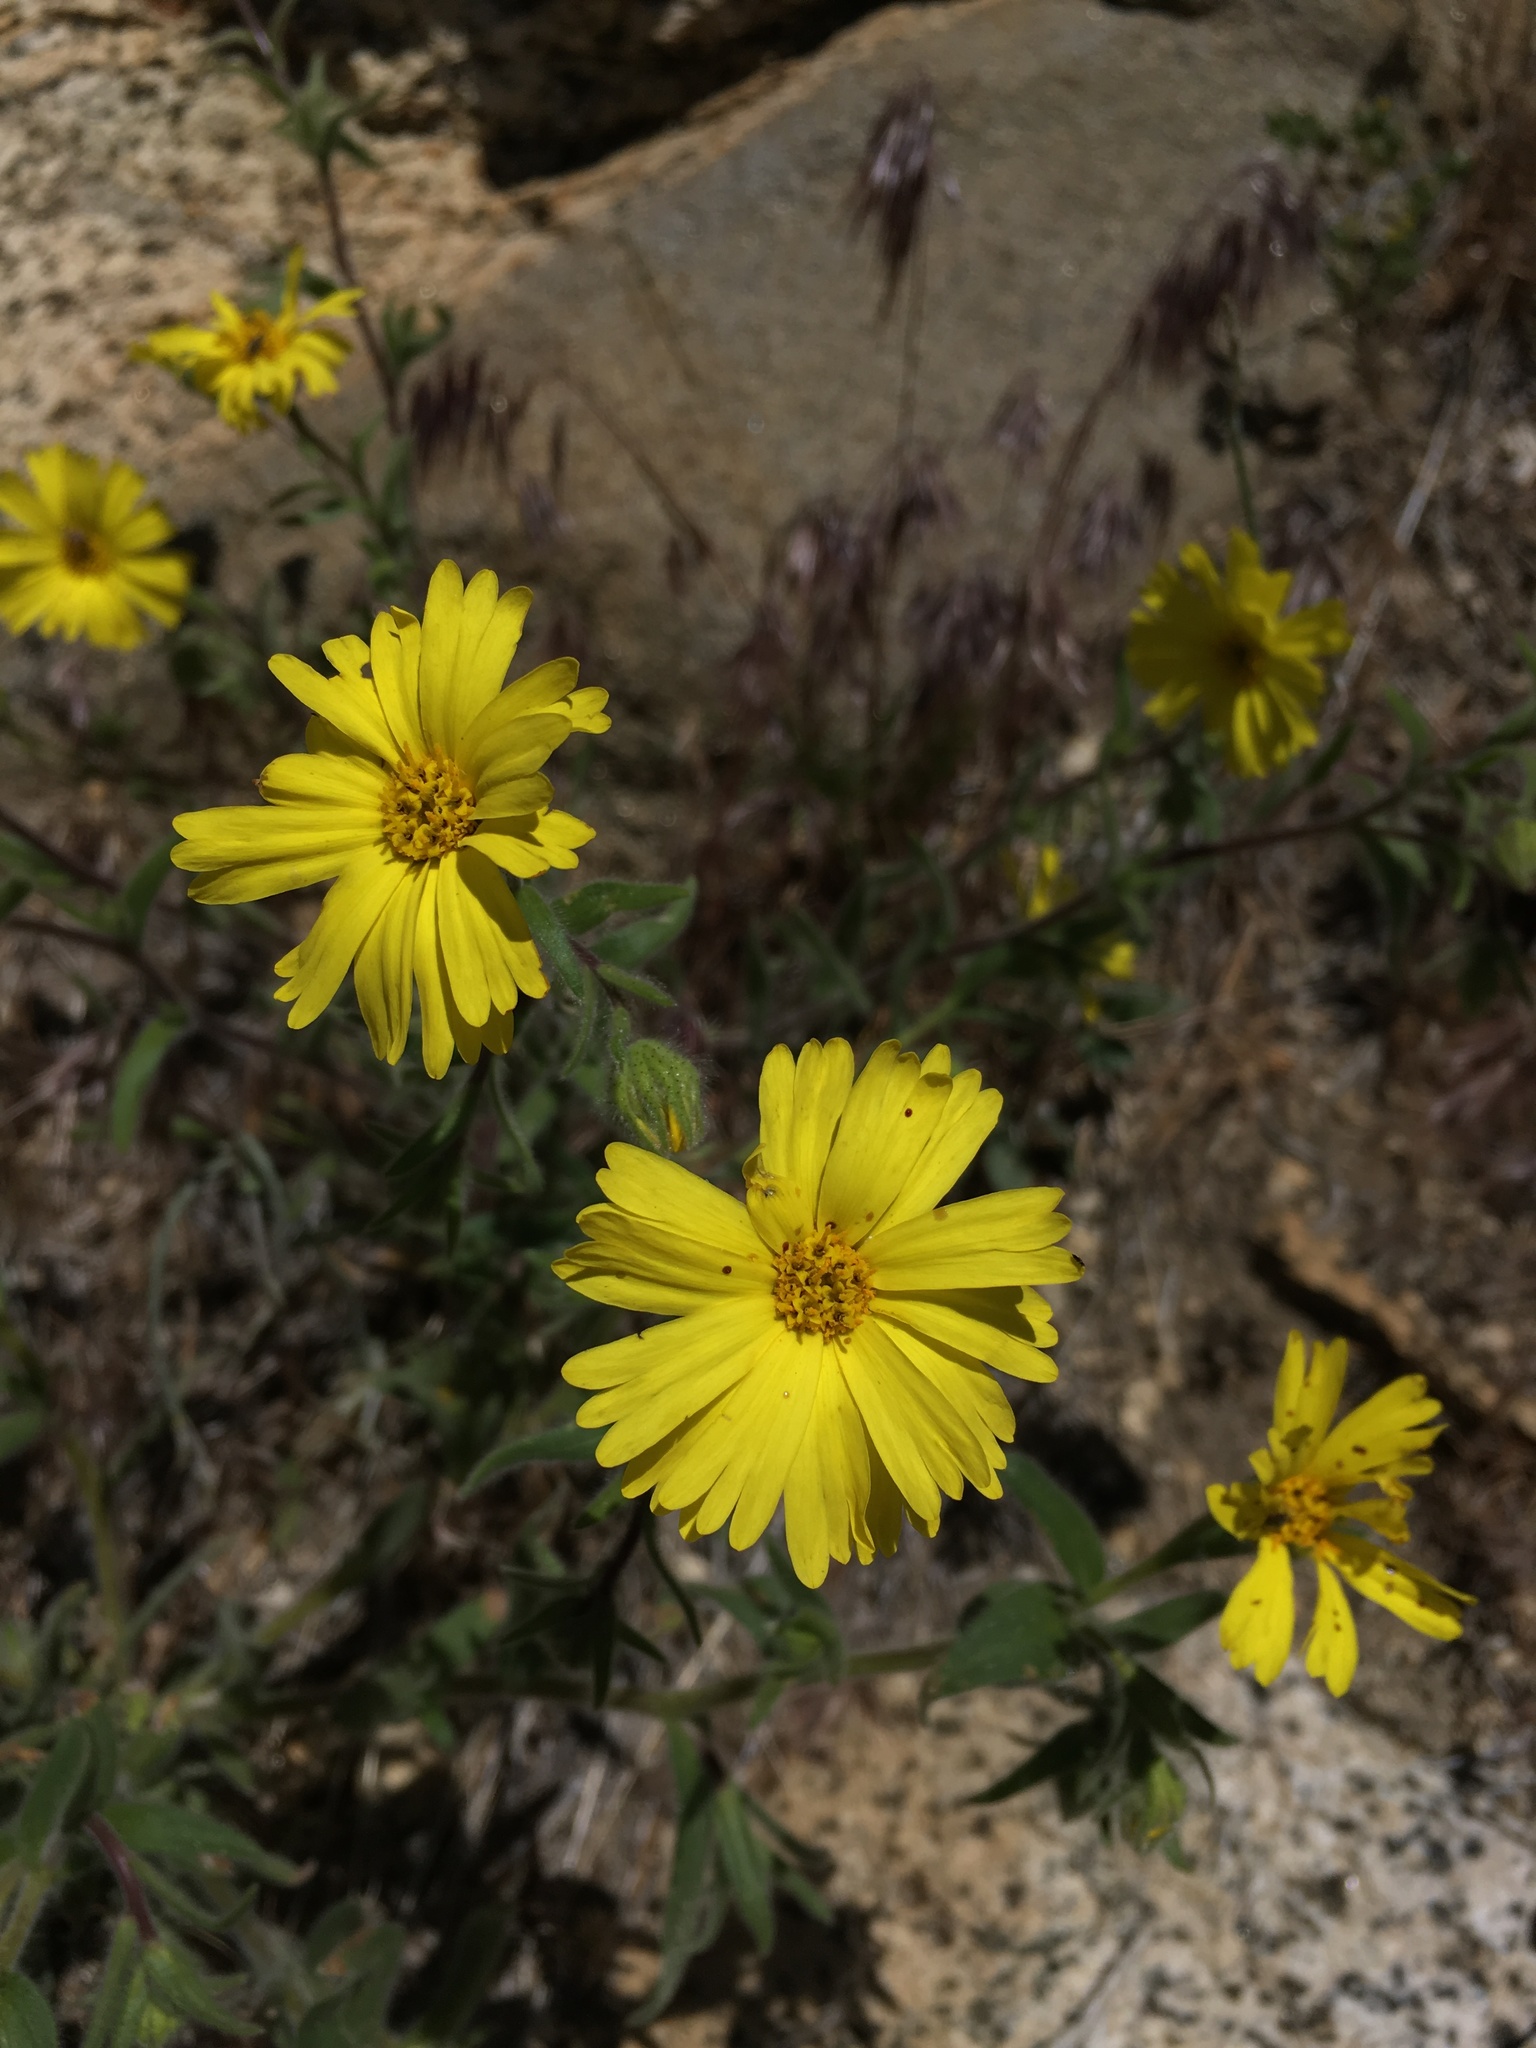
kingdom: Plantae
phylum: Tracheophyta
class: Magnoliopsida
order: Asterales
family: Asteraceae
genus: Madia
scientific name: Madia elegans
